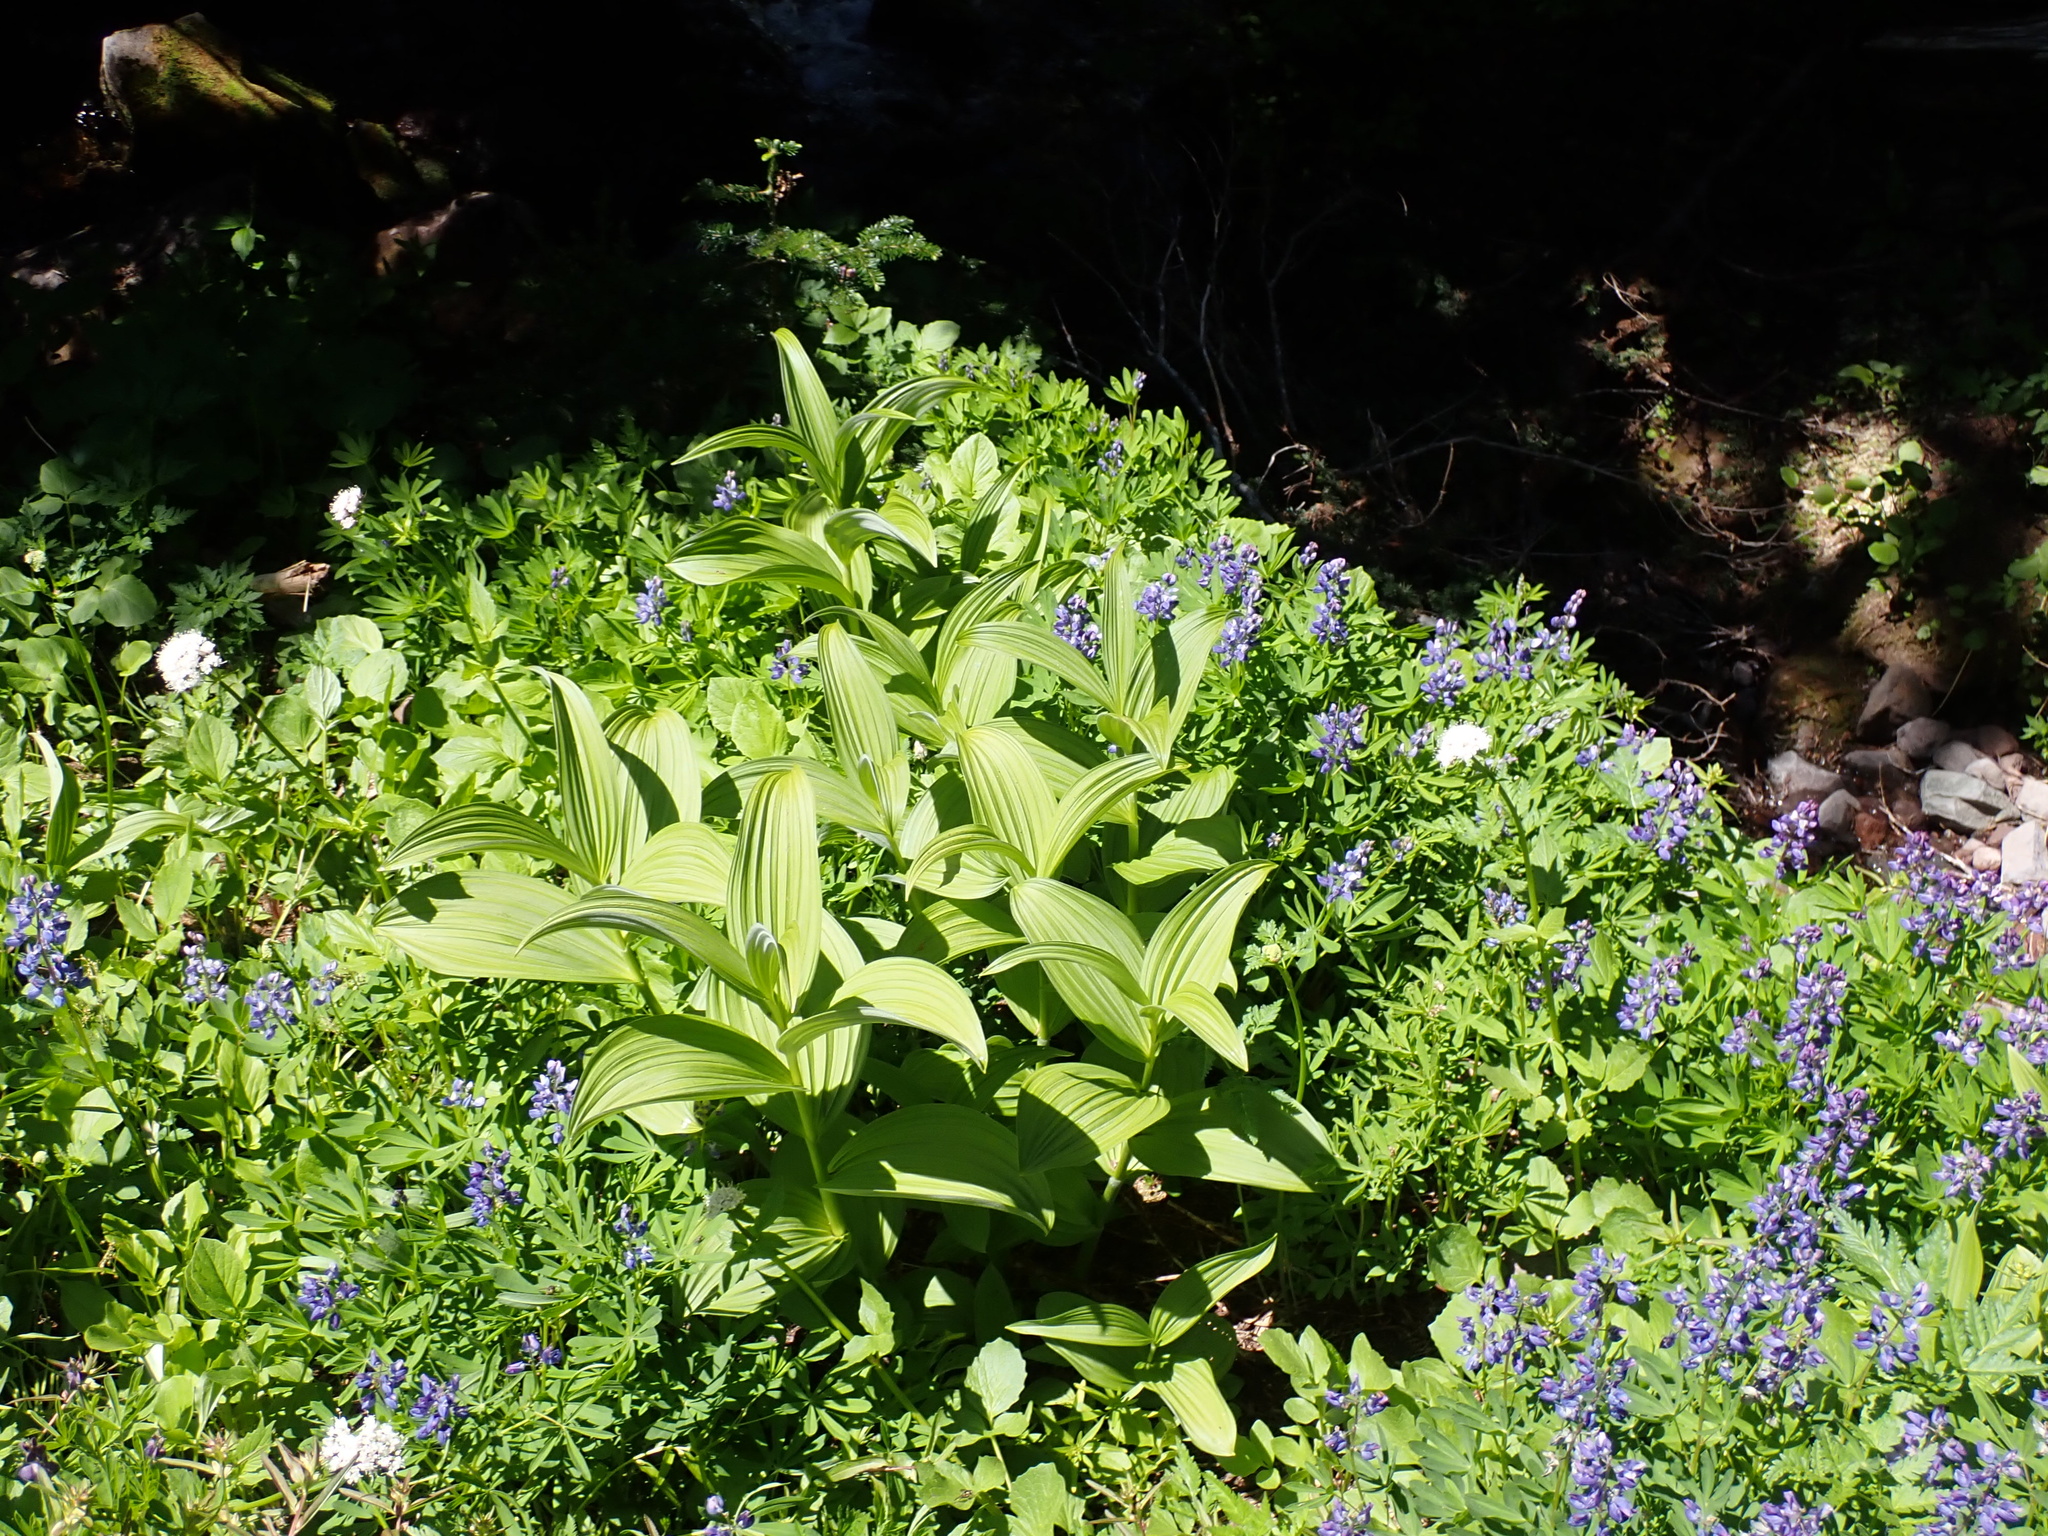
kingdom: Plantae
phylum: Tracheophyta
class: Liliopsida
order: Liliales
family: Melanthiaceae
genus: Veratrum
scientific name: Veratrum viride
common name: American false hellebore
